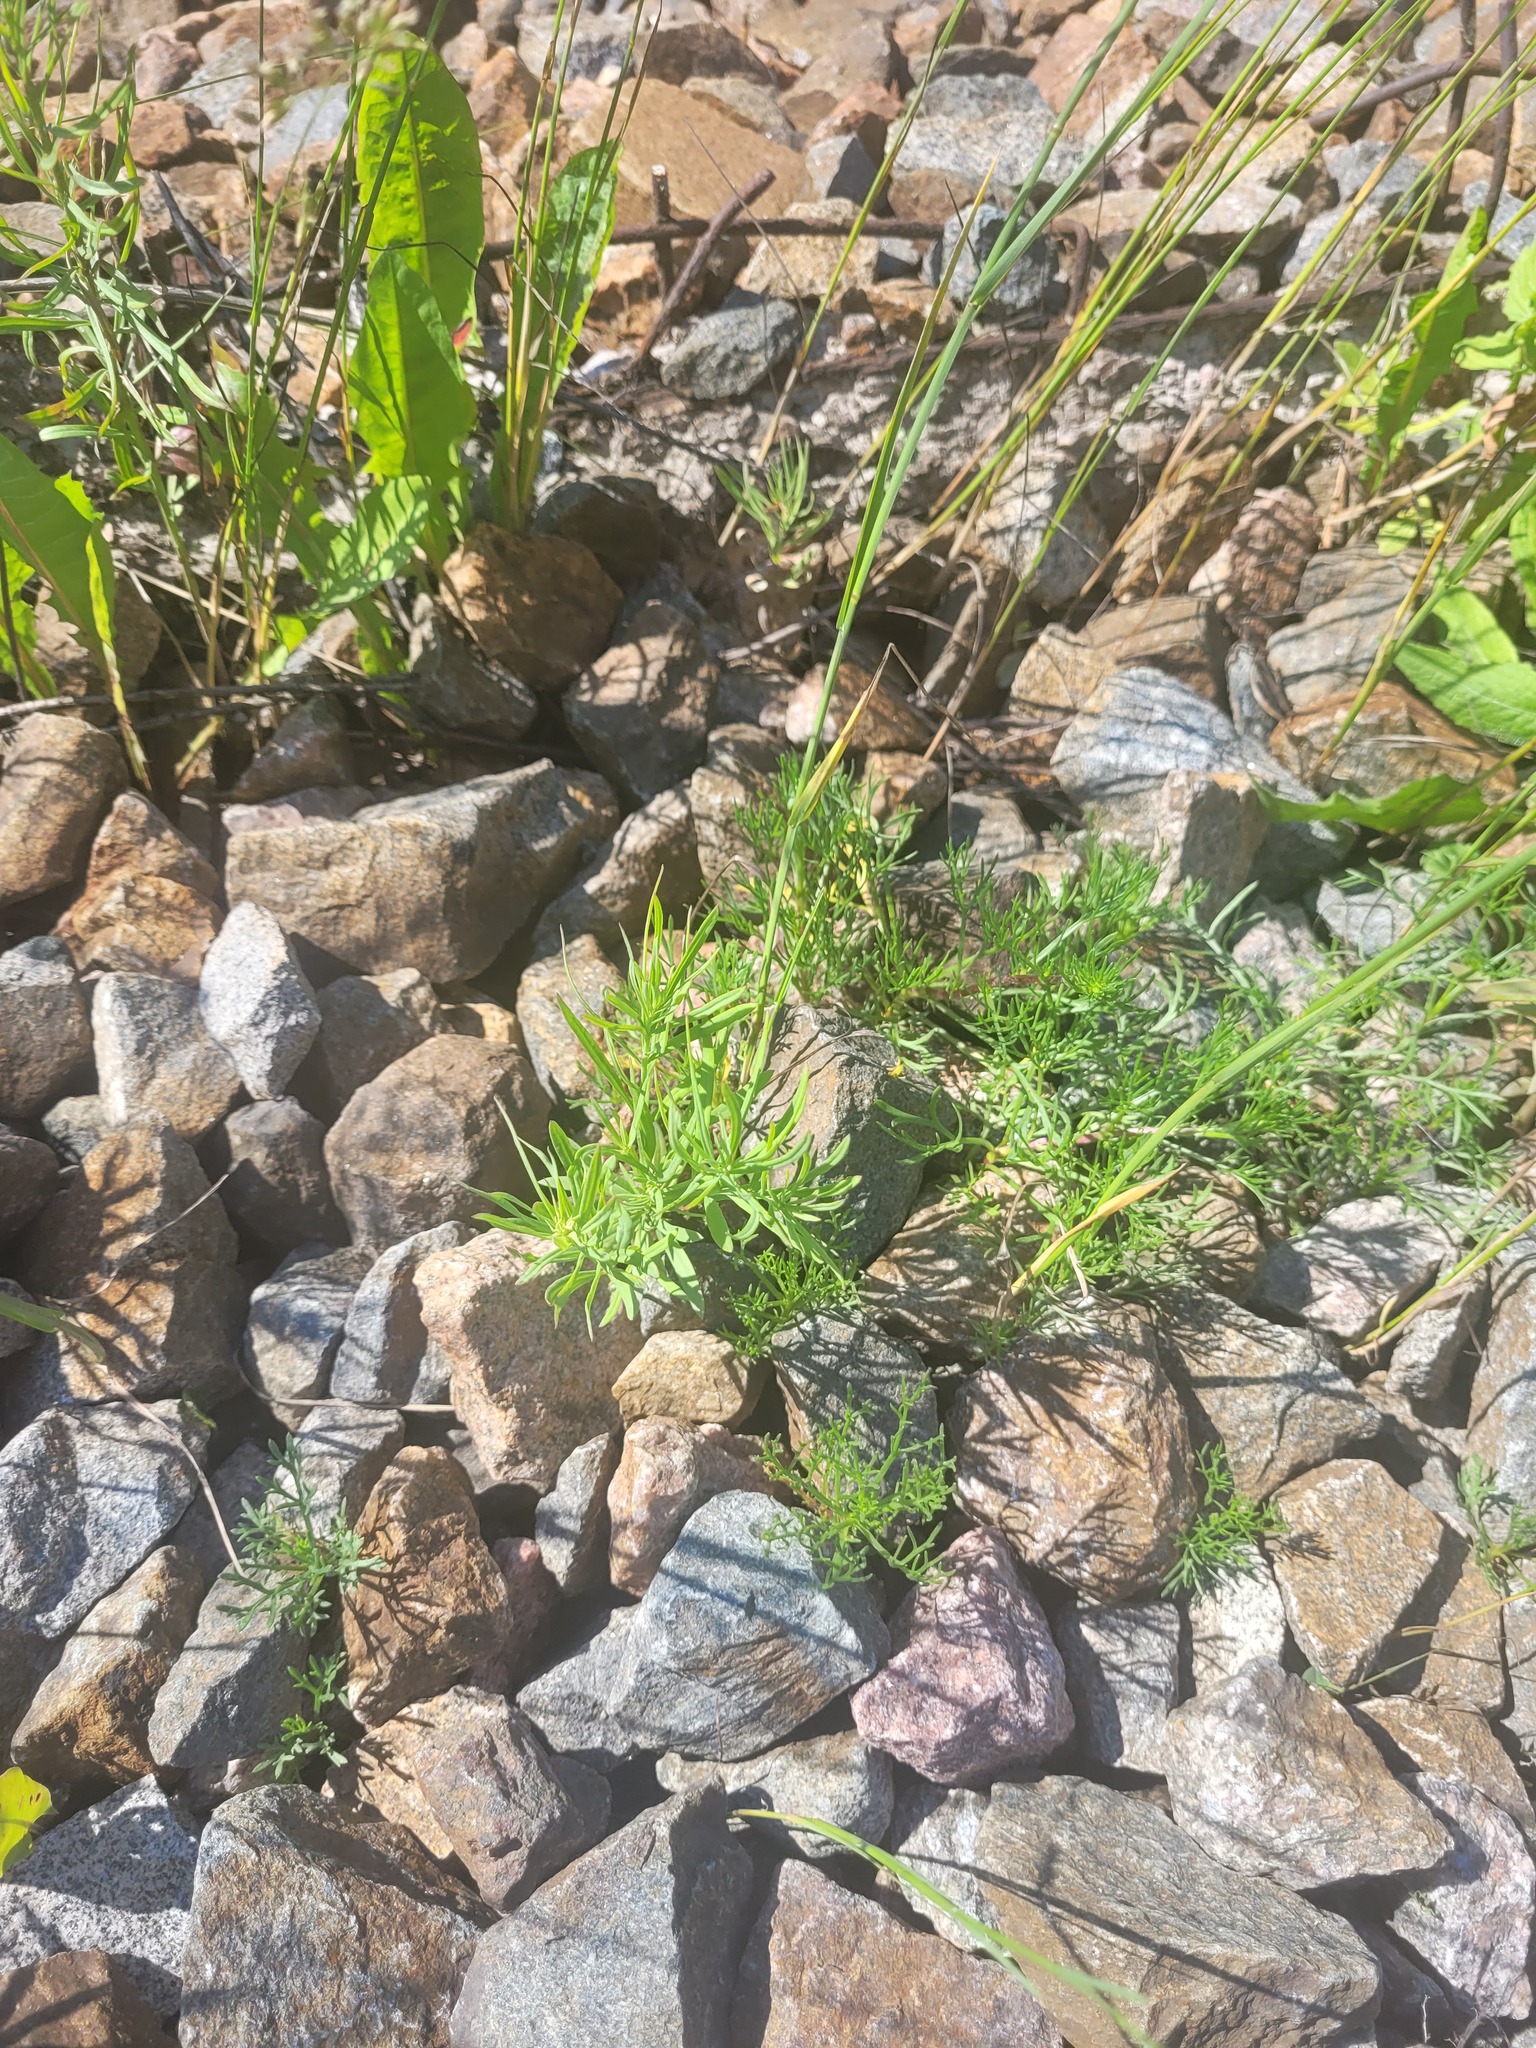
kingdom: Plantae
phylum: Tracheophyta
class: Magnoliopsida
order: Lamiales
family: Plantaginaceae
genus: Linaria
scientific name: Linaria vulgaris
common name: Butter and eggs
